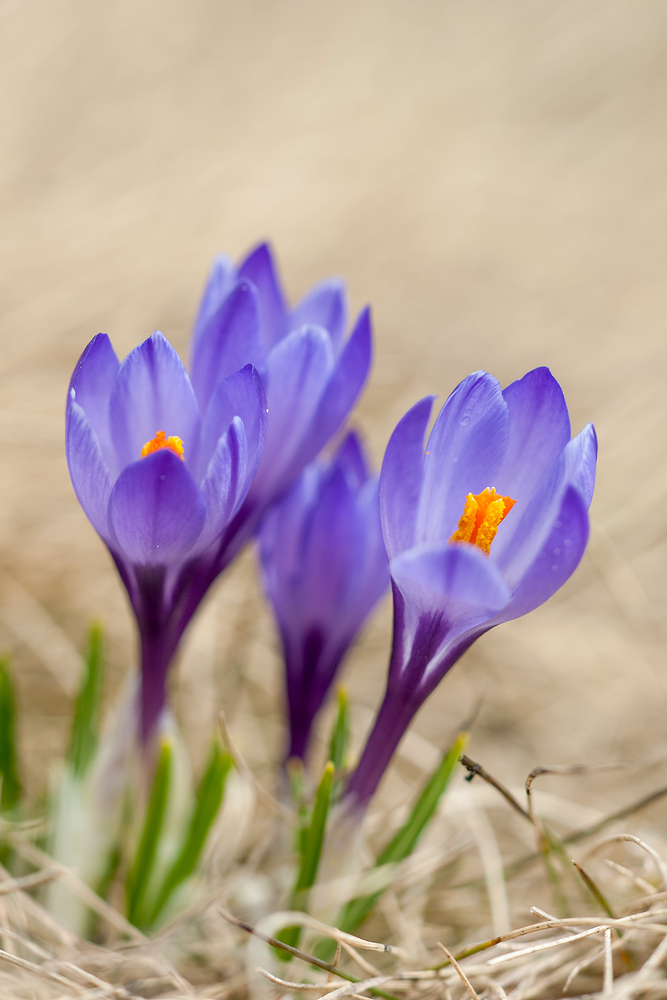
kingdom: Plantae
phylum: Tracheophyta
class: Liliopsida
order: Asparagales
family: Iridaceae
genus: Crocus
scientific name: Crocus vernus
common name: Spring crocus
